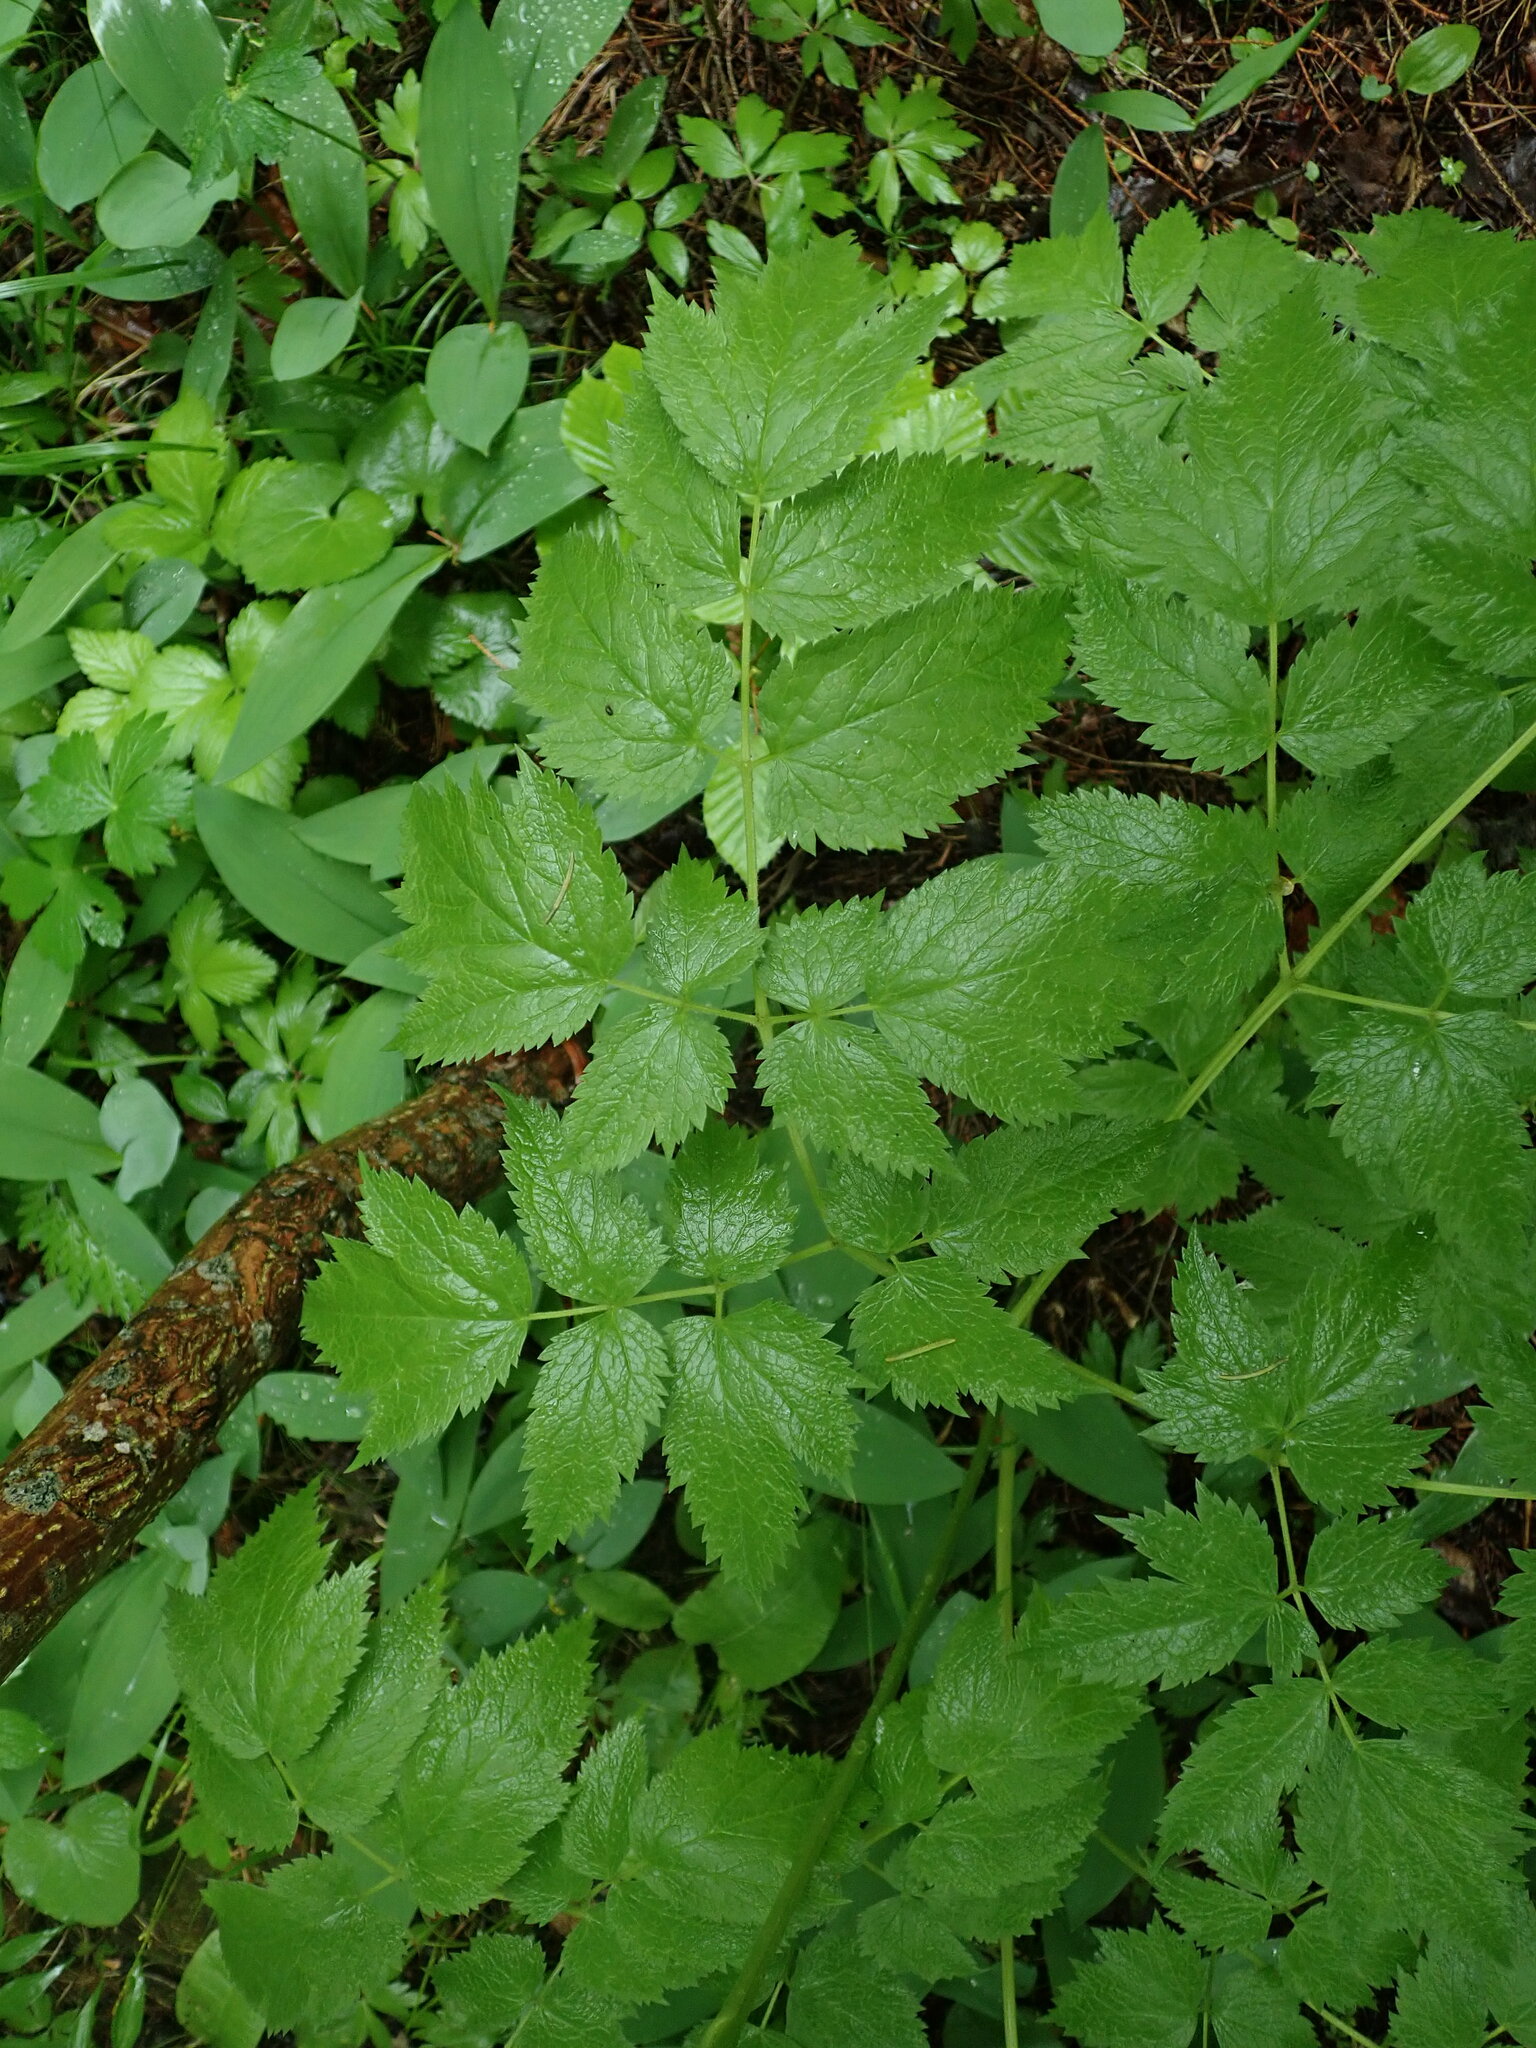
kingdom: Plantae
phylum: Tracheophyta
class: Magnoliopsida
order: Rosales
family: Rosaceae
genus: Aruncus
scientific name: Aruncus dioicus
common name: Buck's-beard
